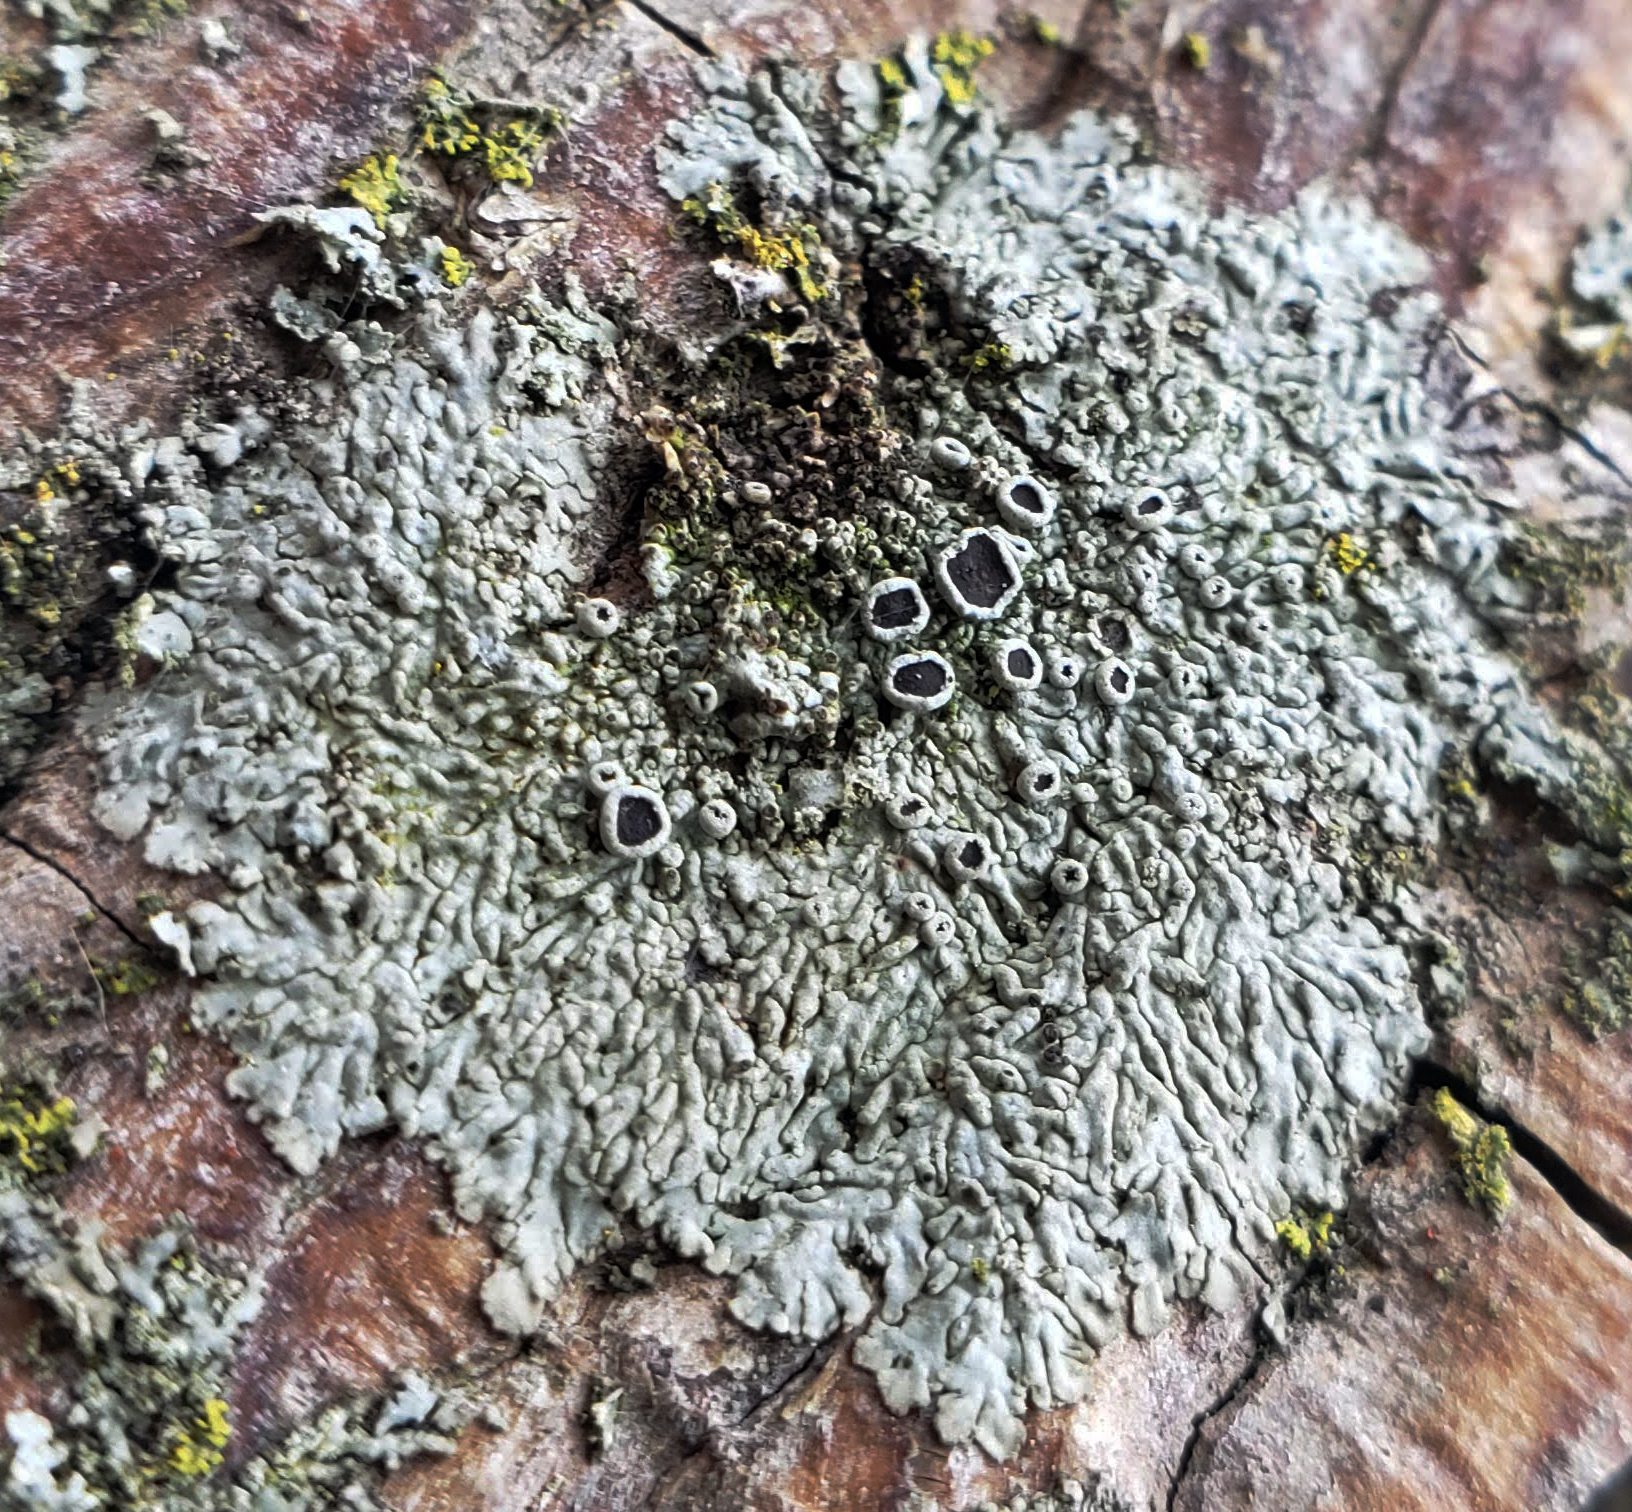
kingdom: Fungi
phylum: Ascomycota
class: Lecanoromycetes
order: Caliciales
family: Physciaceae
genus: Hyperphyscia
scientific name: Hyperphyscia syncolla
